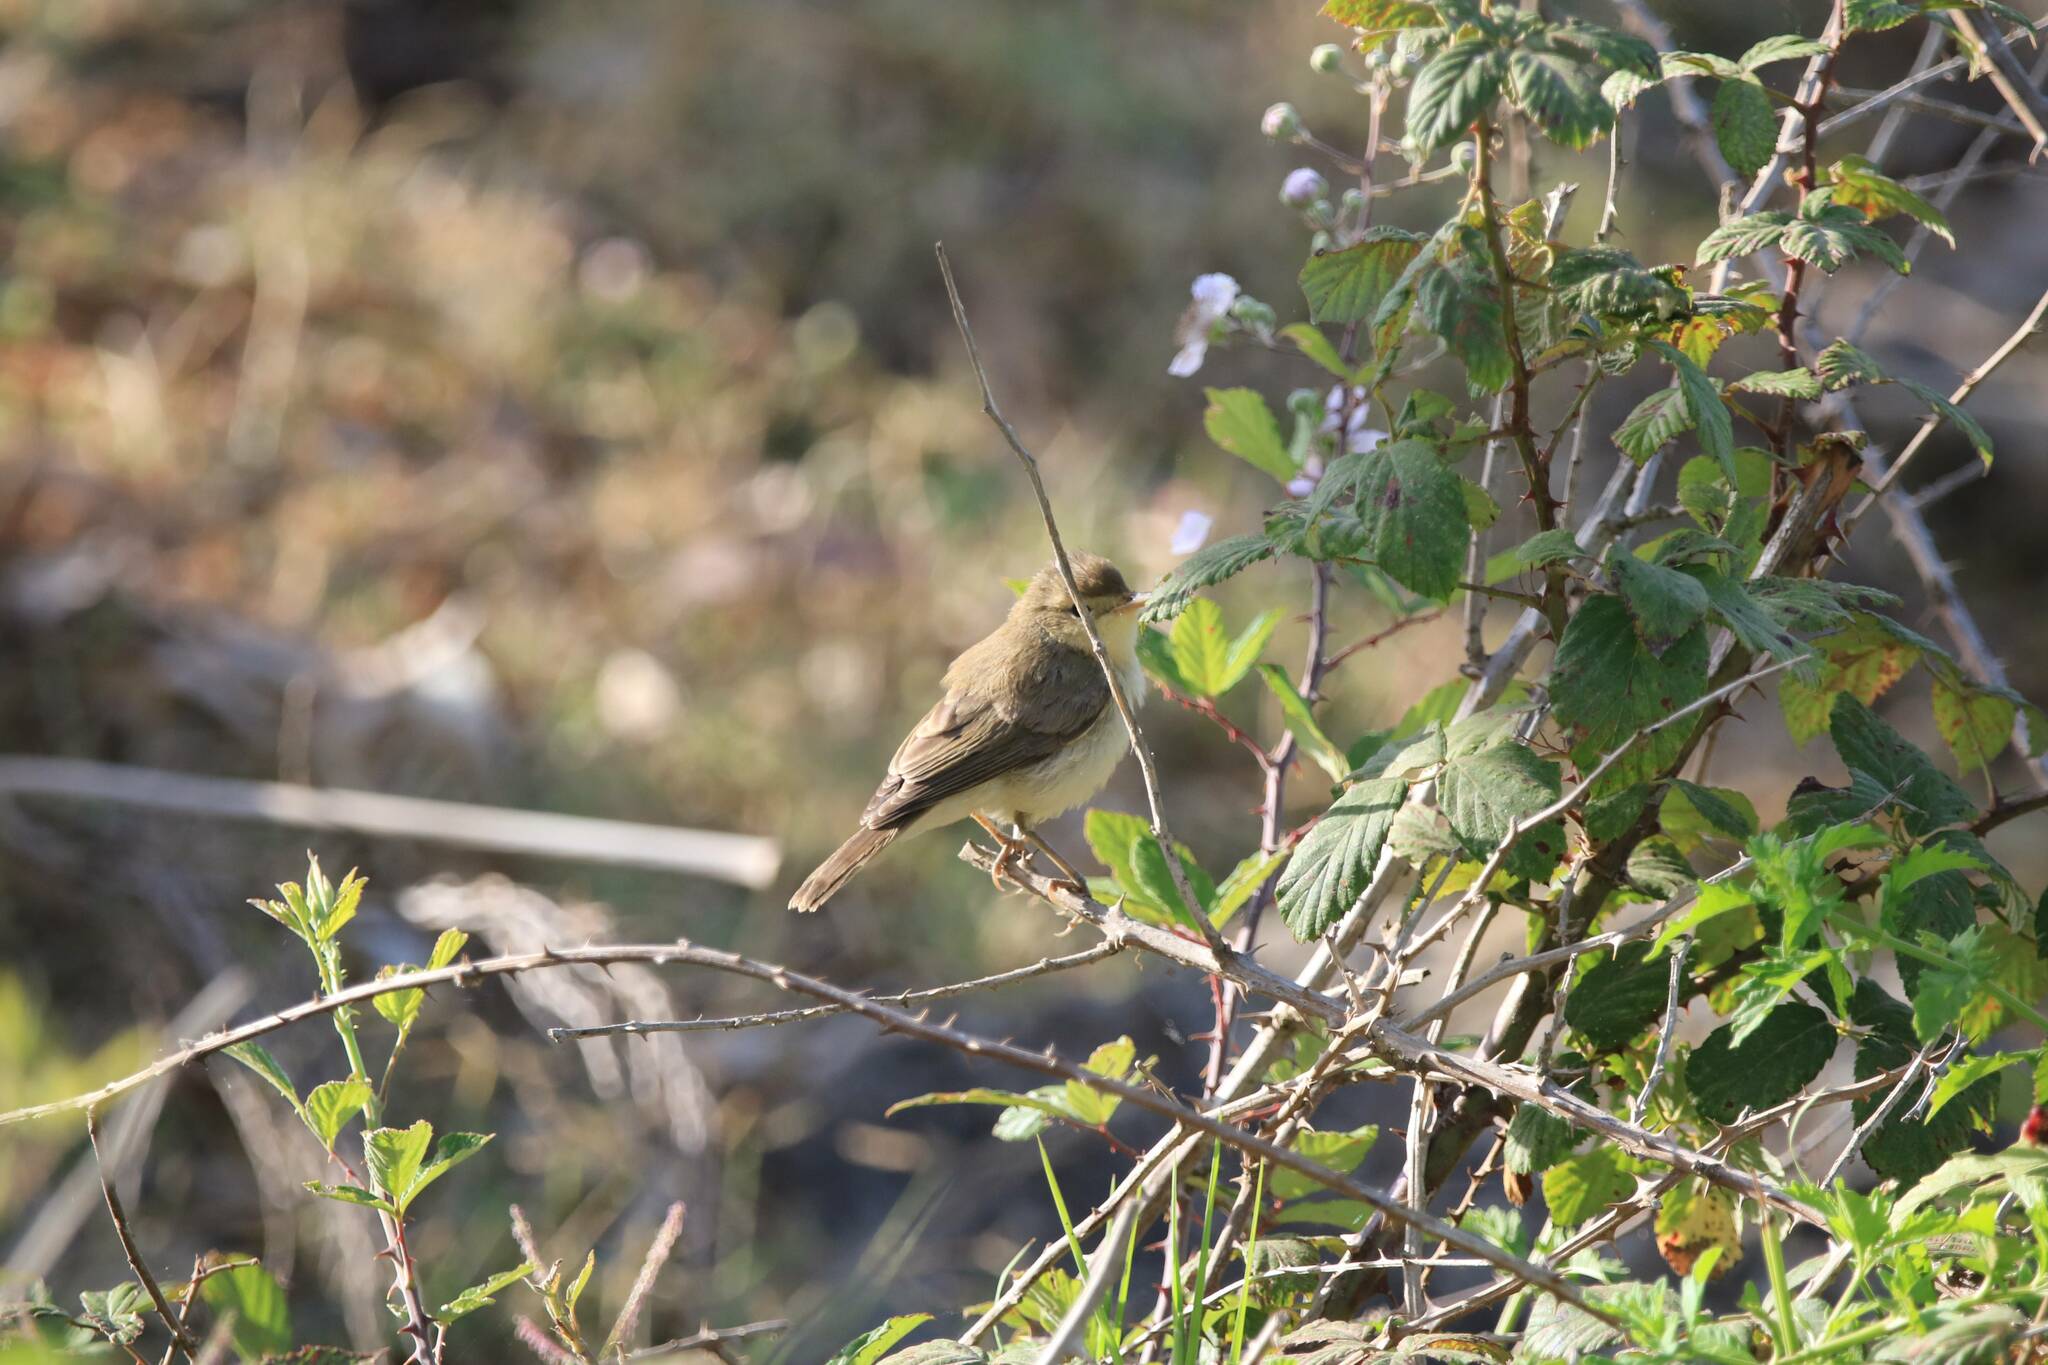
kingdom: Animalia
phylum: Chordata
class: Aves
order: Passeriformes
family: Acrocephalidae
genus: Hippolais
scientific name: Hippolais polyglotta
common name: Melodious warbler
